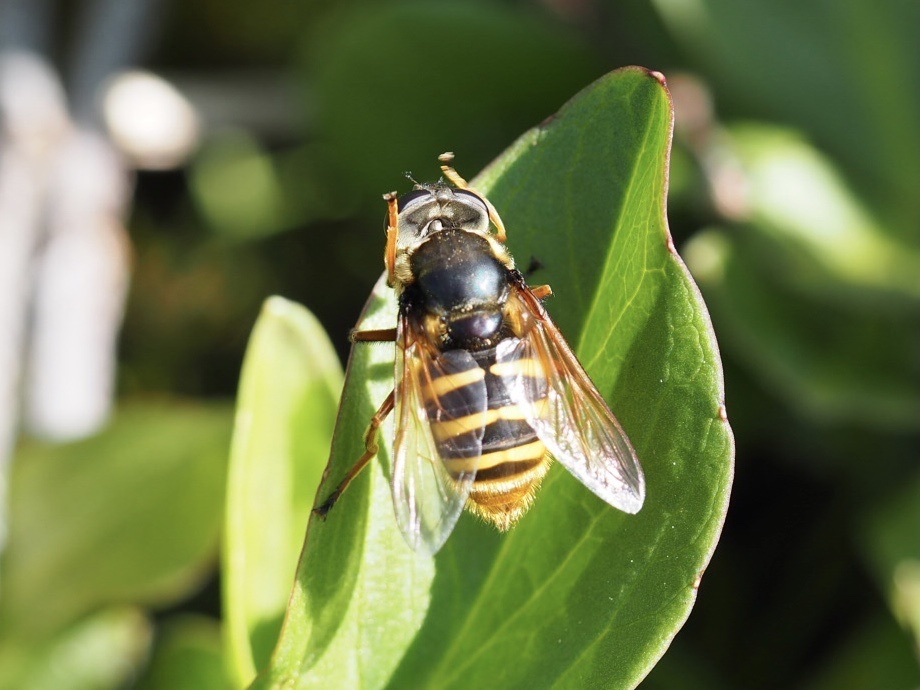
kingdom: Animalia
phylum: Arthropoda
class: Insecta
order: Diptera
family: Syrphidae
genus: Sericomyia
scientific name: Sericomyia silentis
